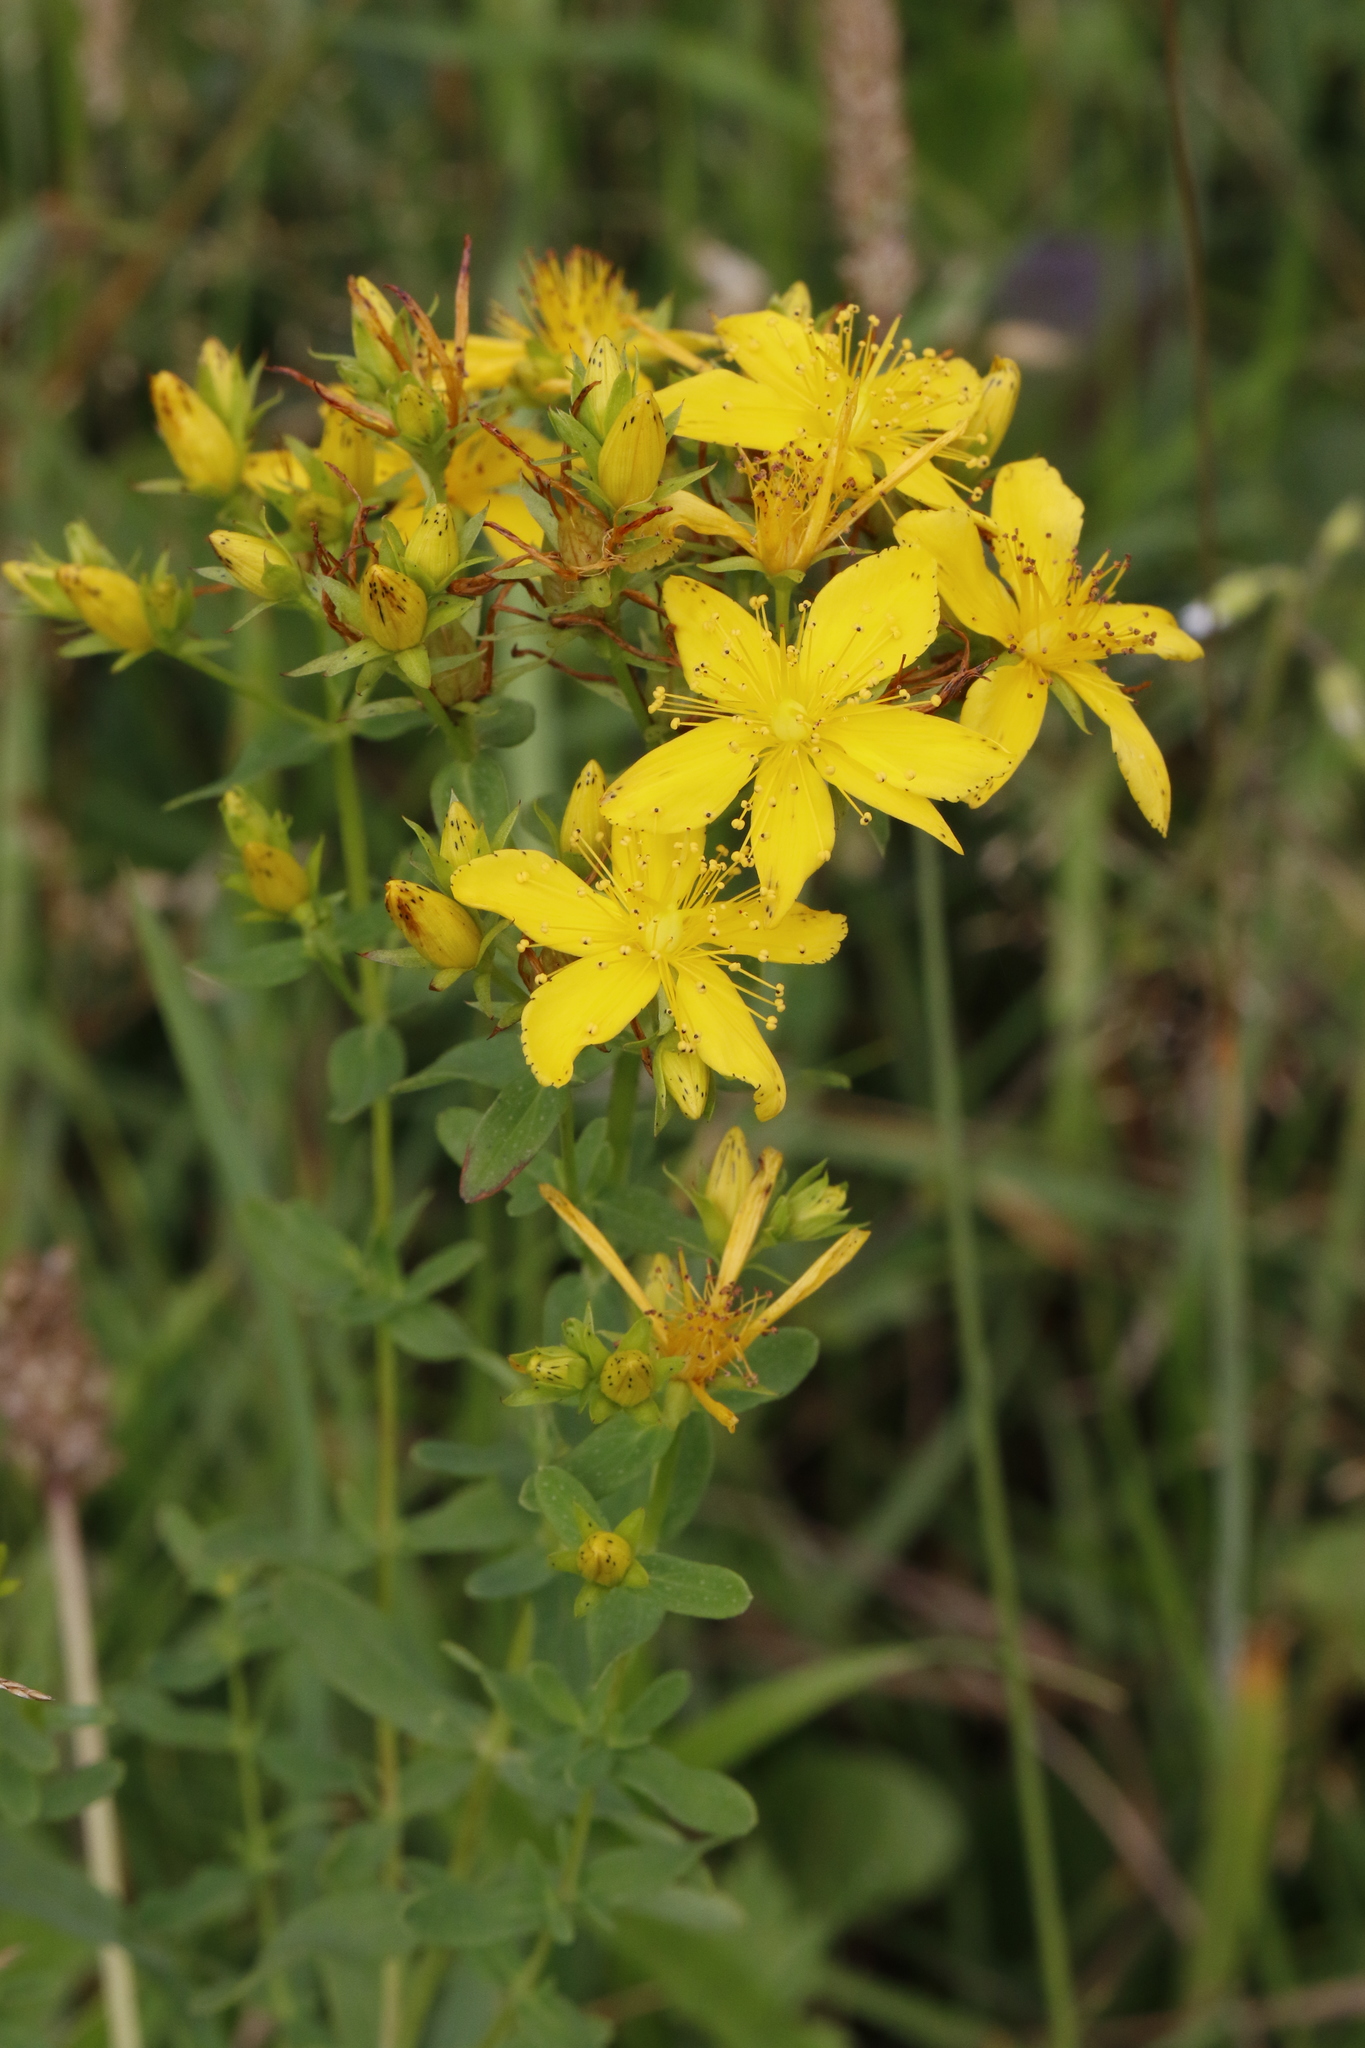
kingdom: Plantae
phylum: Tracheophyta
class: Magnoliopsida
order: Malpighiales
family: Hypericaceae
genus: Hypericum
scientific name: Hypericum perforatum
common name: Common st. johnswort
